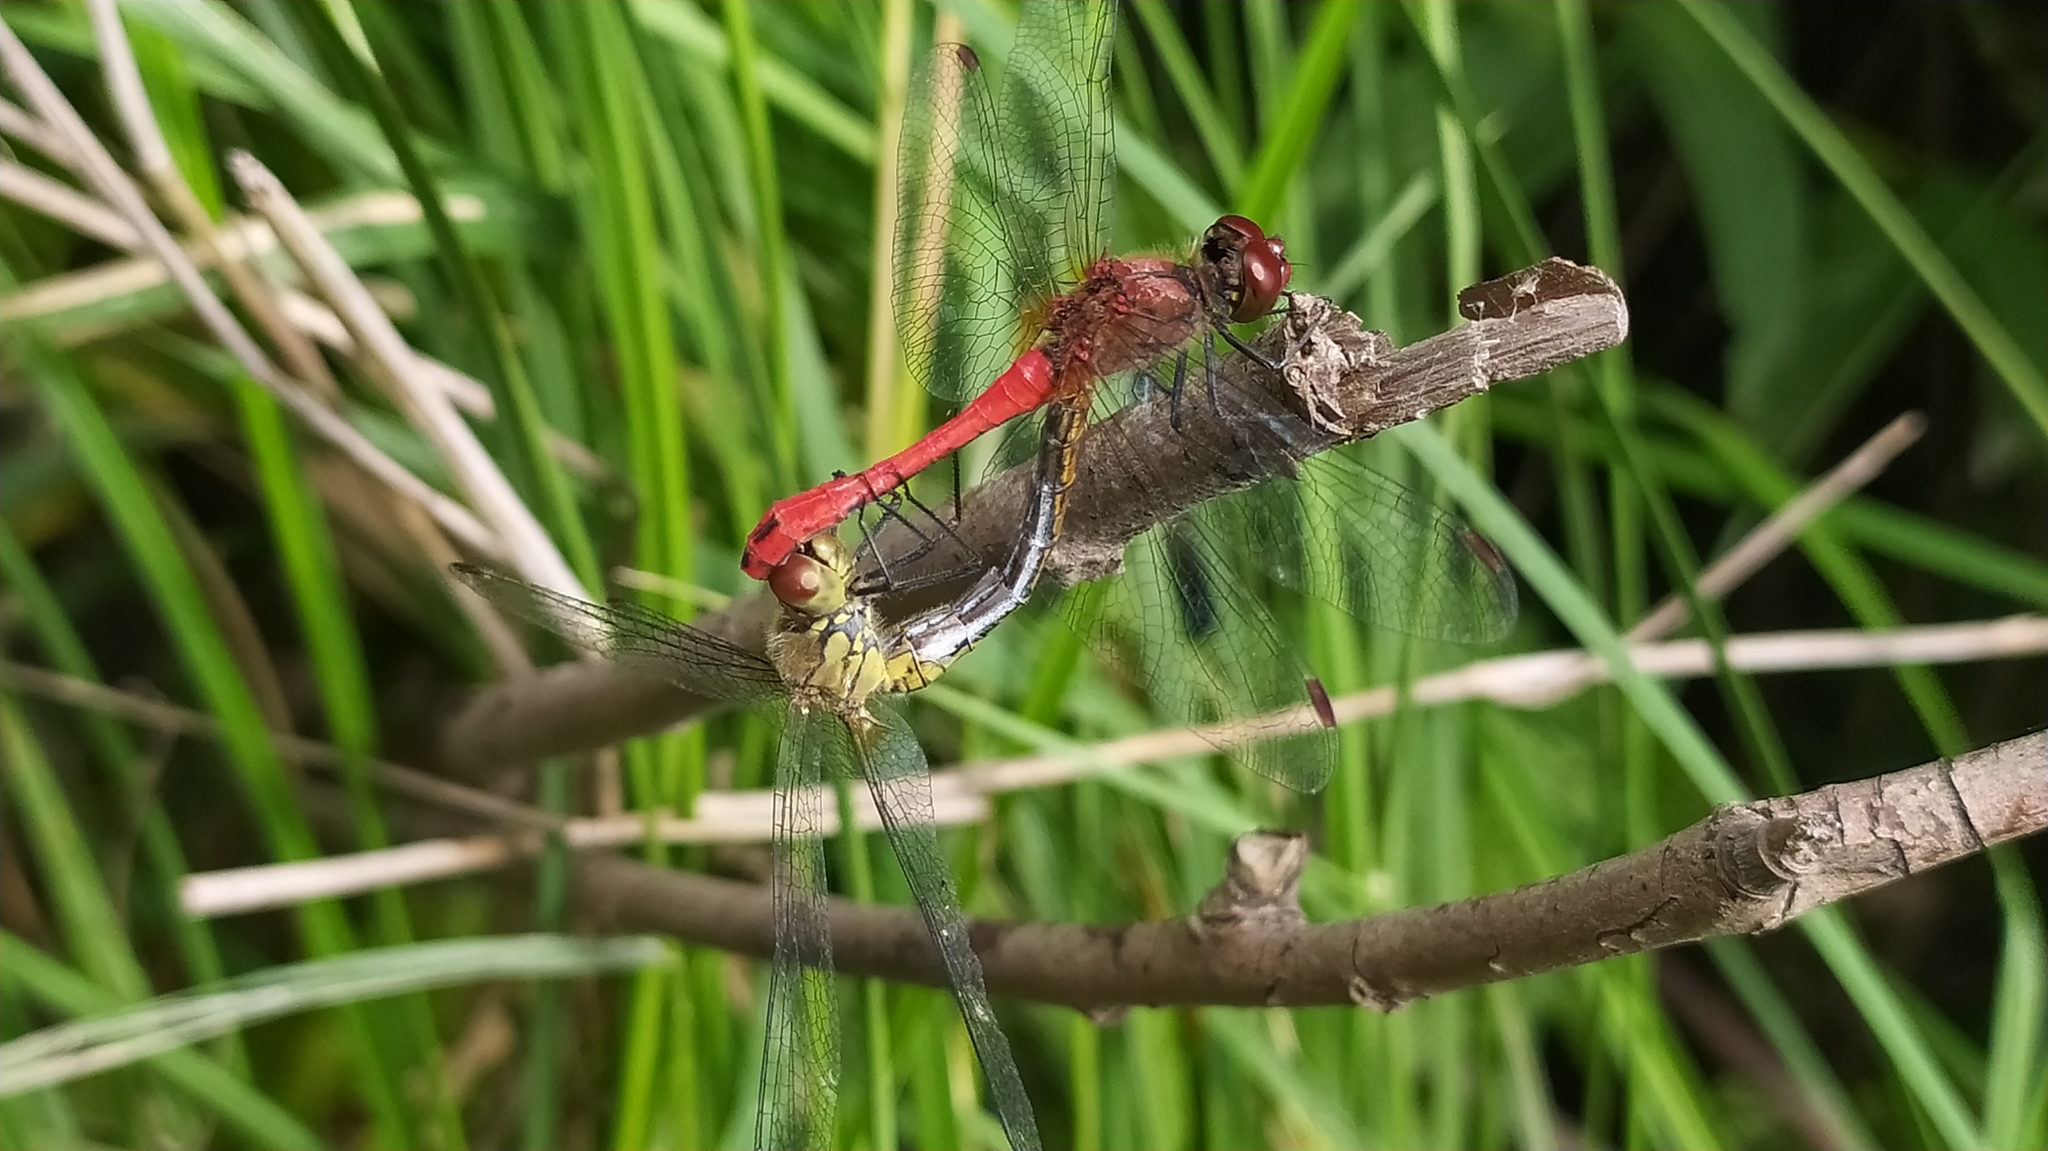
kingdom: Animalia
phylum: Arthropoda
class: Insecta
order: Odonata
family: Libellulidae
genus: Sympetrum
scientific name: Sympetrum sanguineum
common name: Ruddy darter
